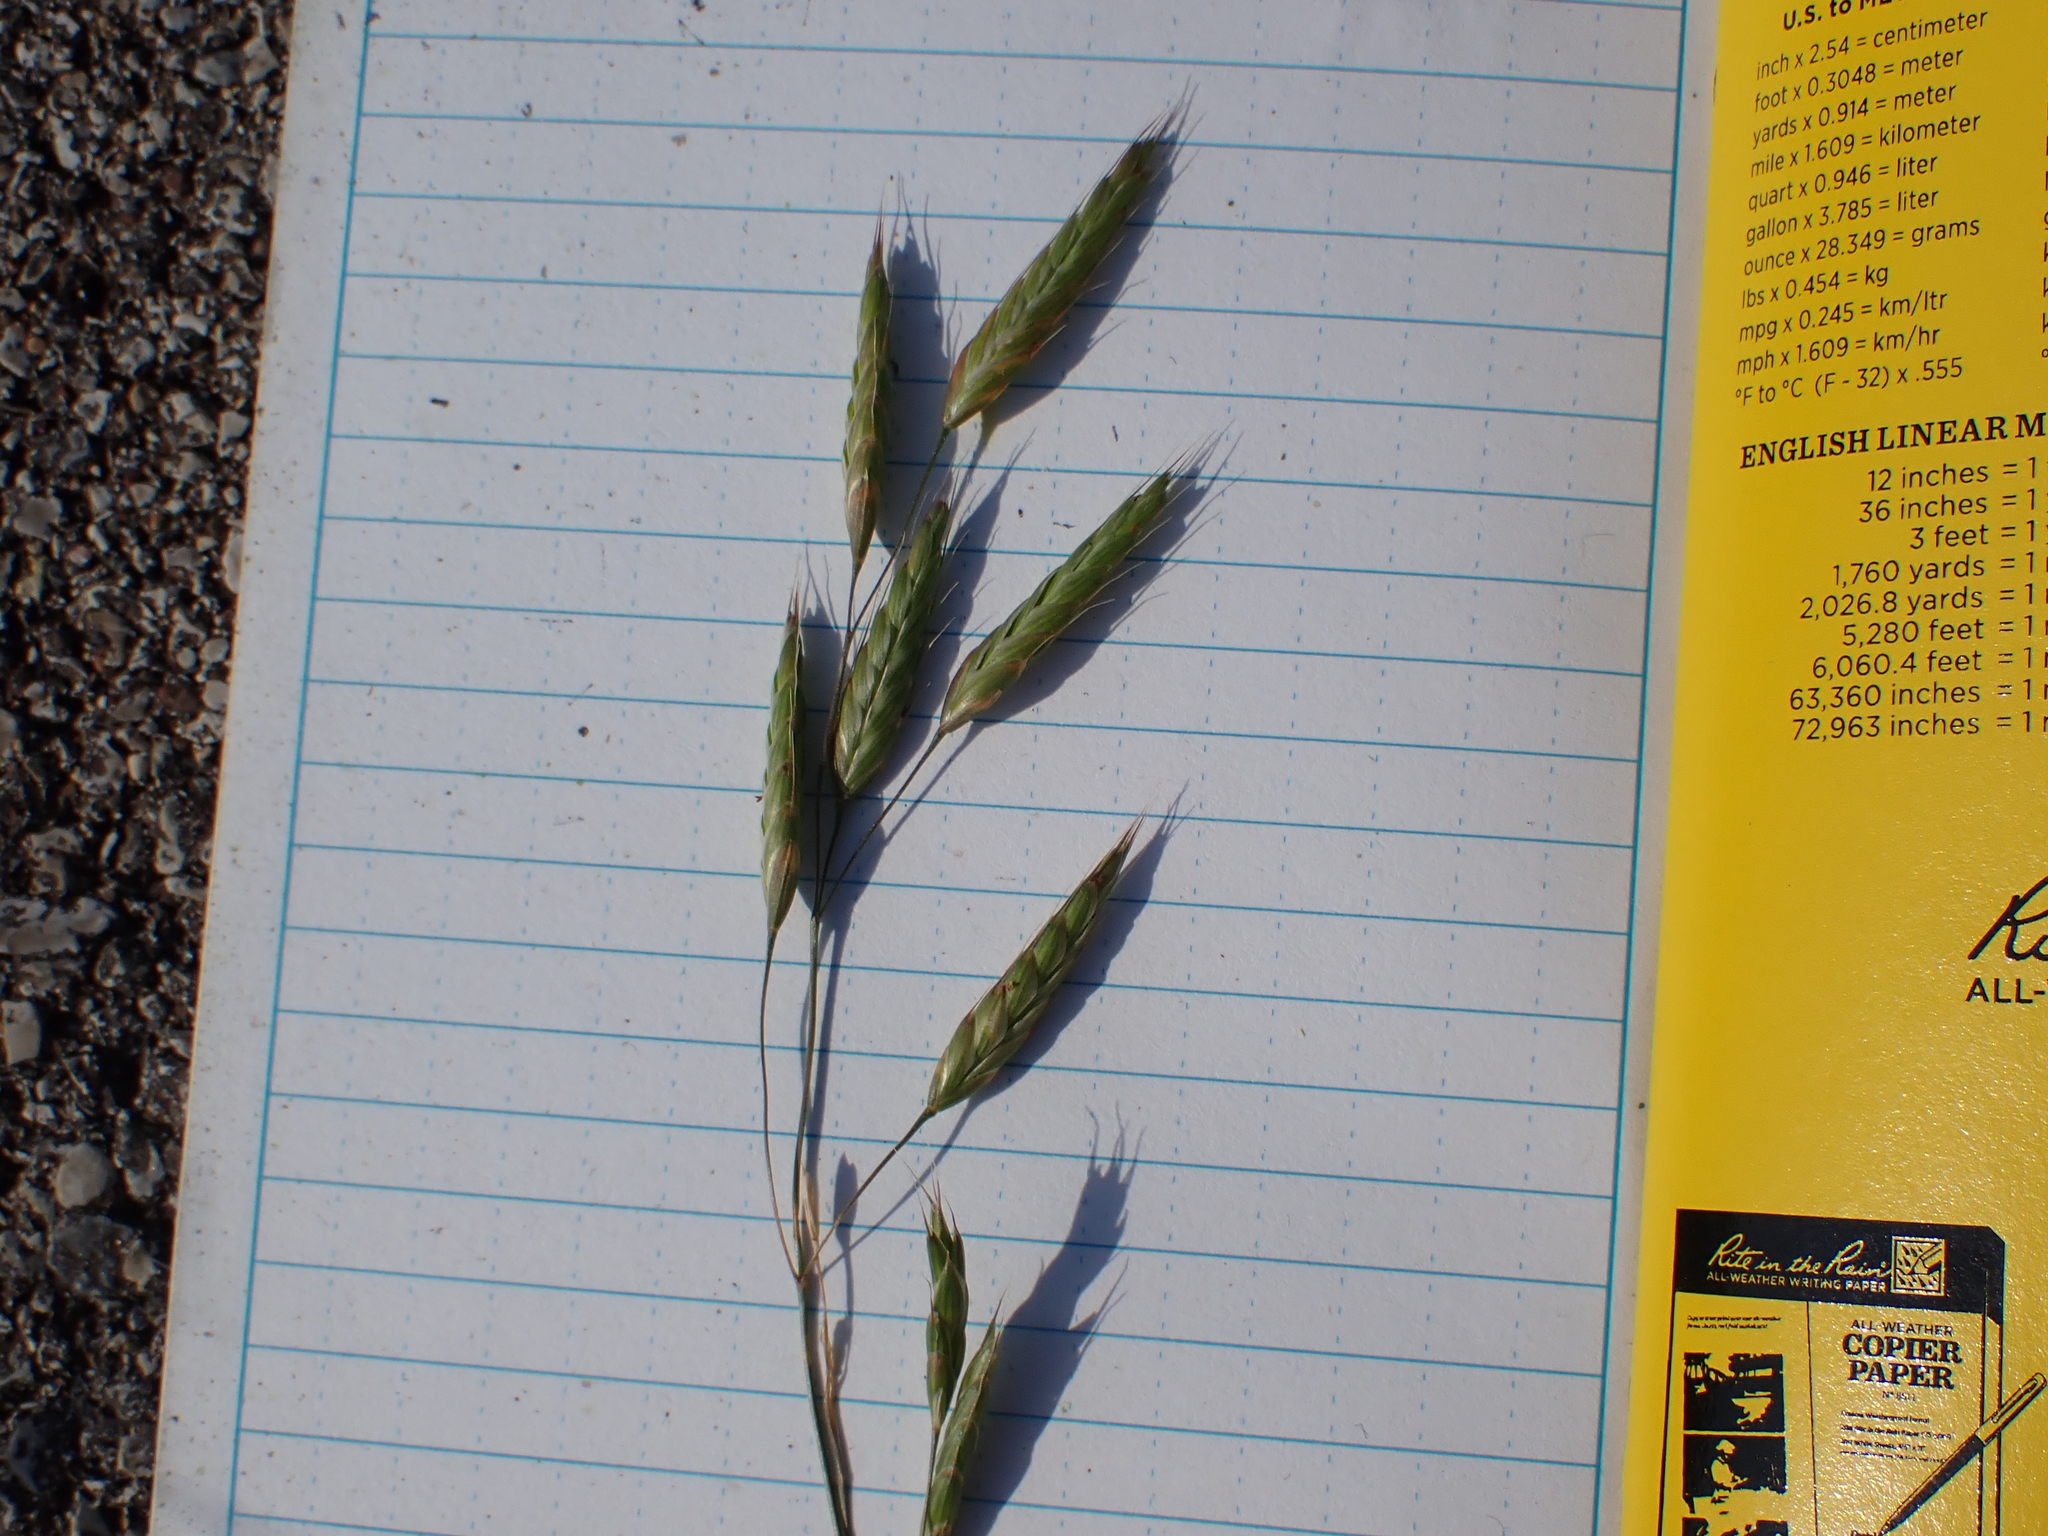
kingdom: Plantae
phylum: Tracheophyta
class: Liliopsida
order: Poales
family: Poaceae
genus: Bromus
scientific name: Bromus japonicus
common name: Japanese brome
